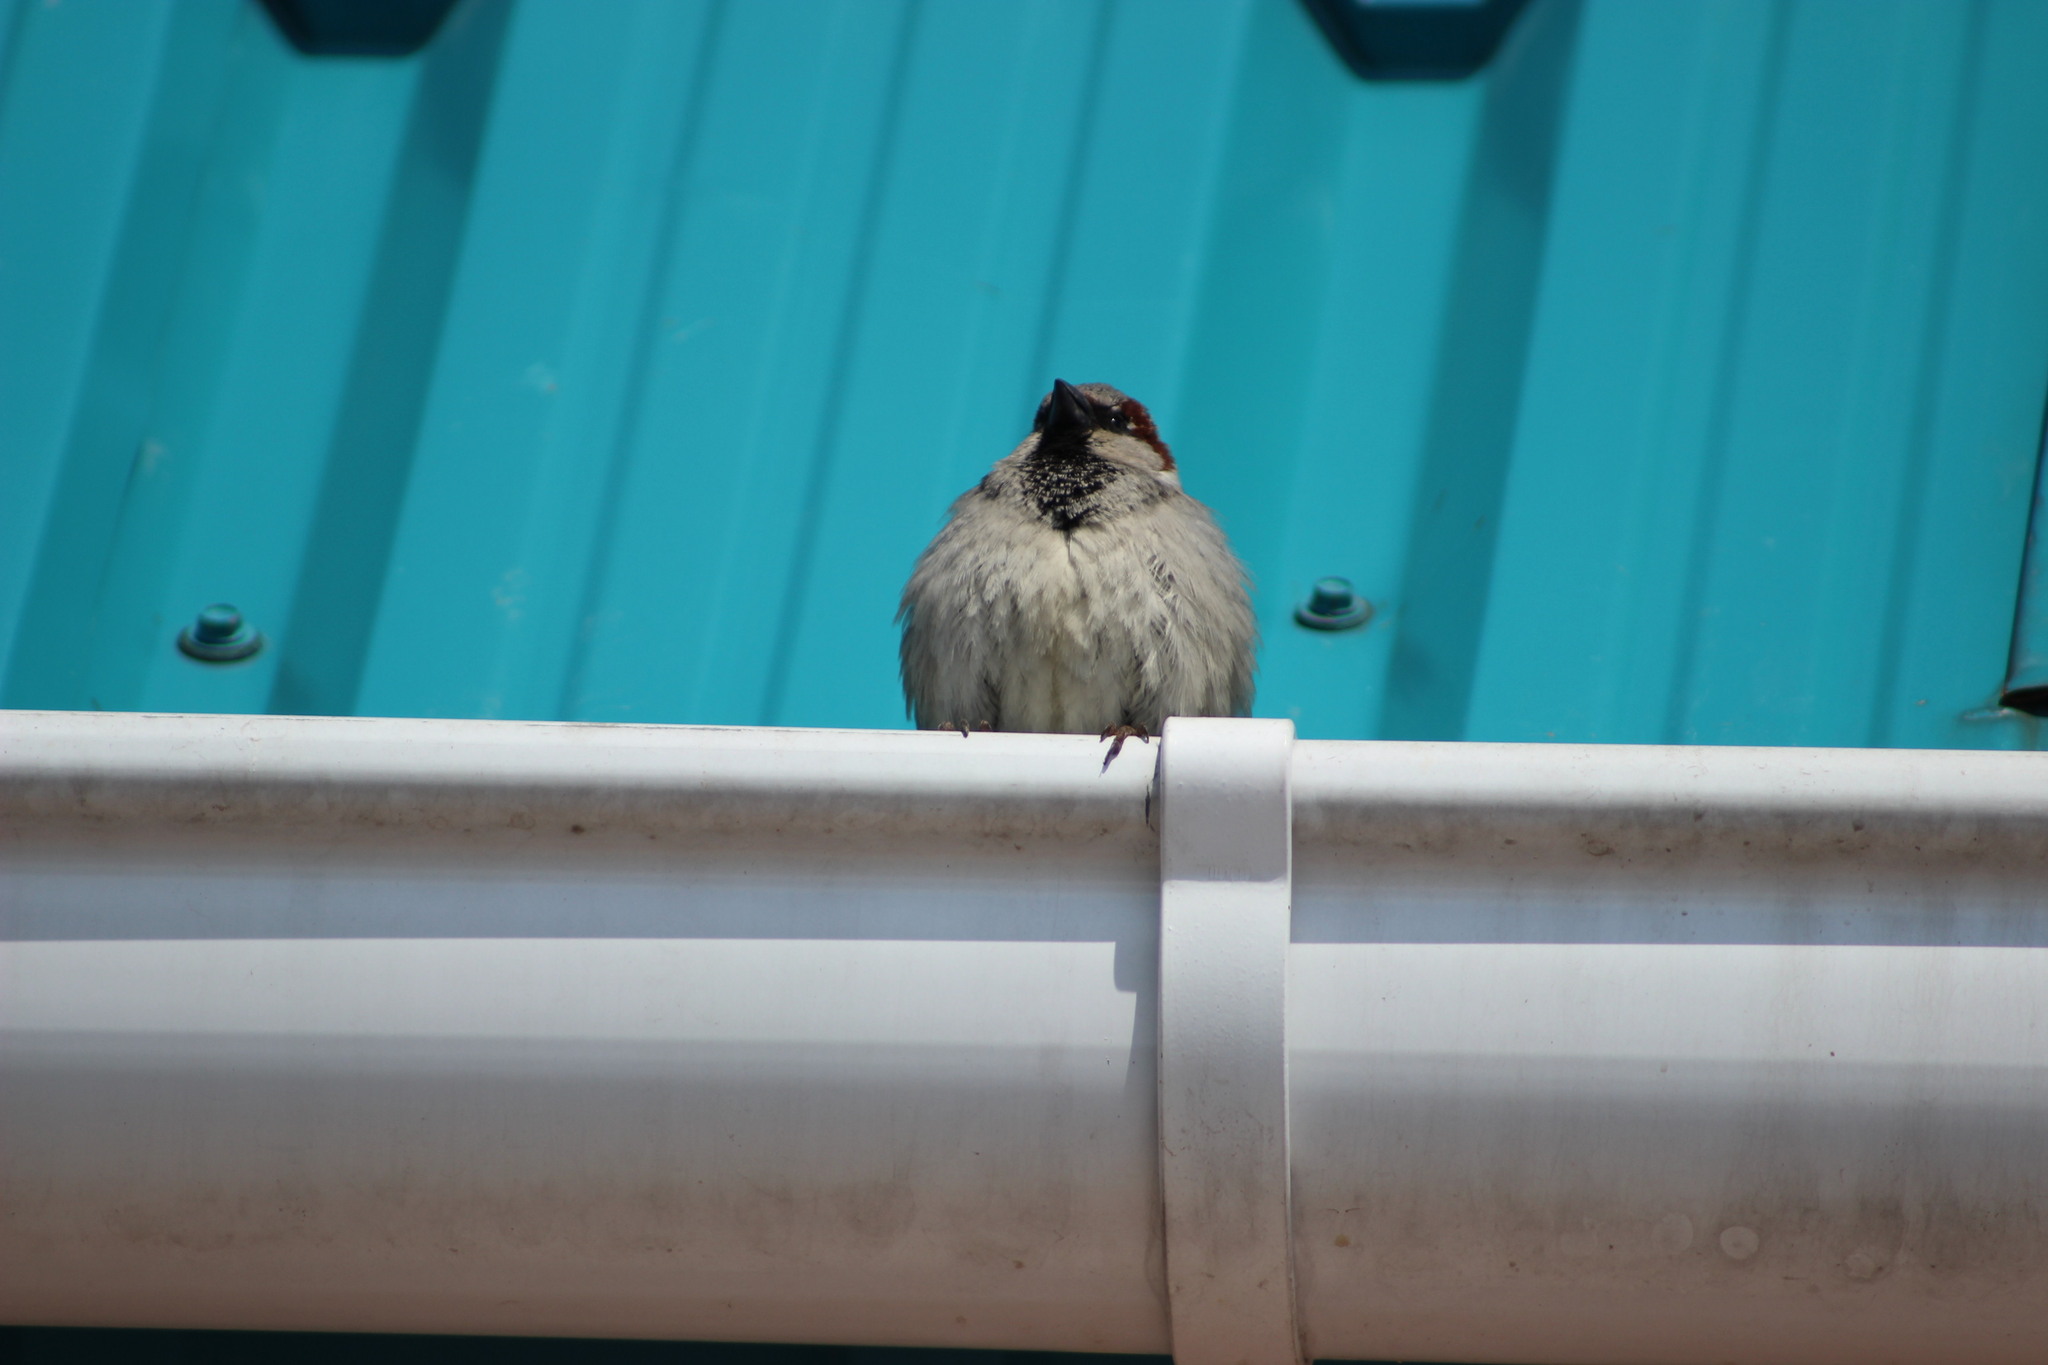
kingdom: Animalia
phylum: Chordata
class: Aves
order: Passeriformes
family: Passeridae
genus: Passer
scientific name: Passer domesticus
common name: House sparrow
